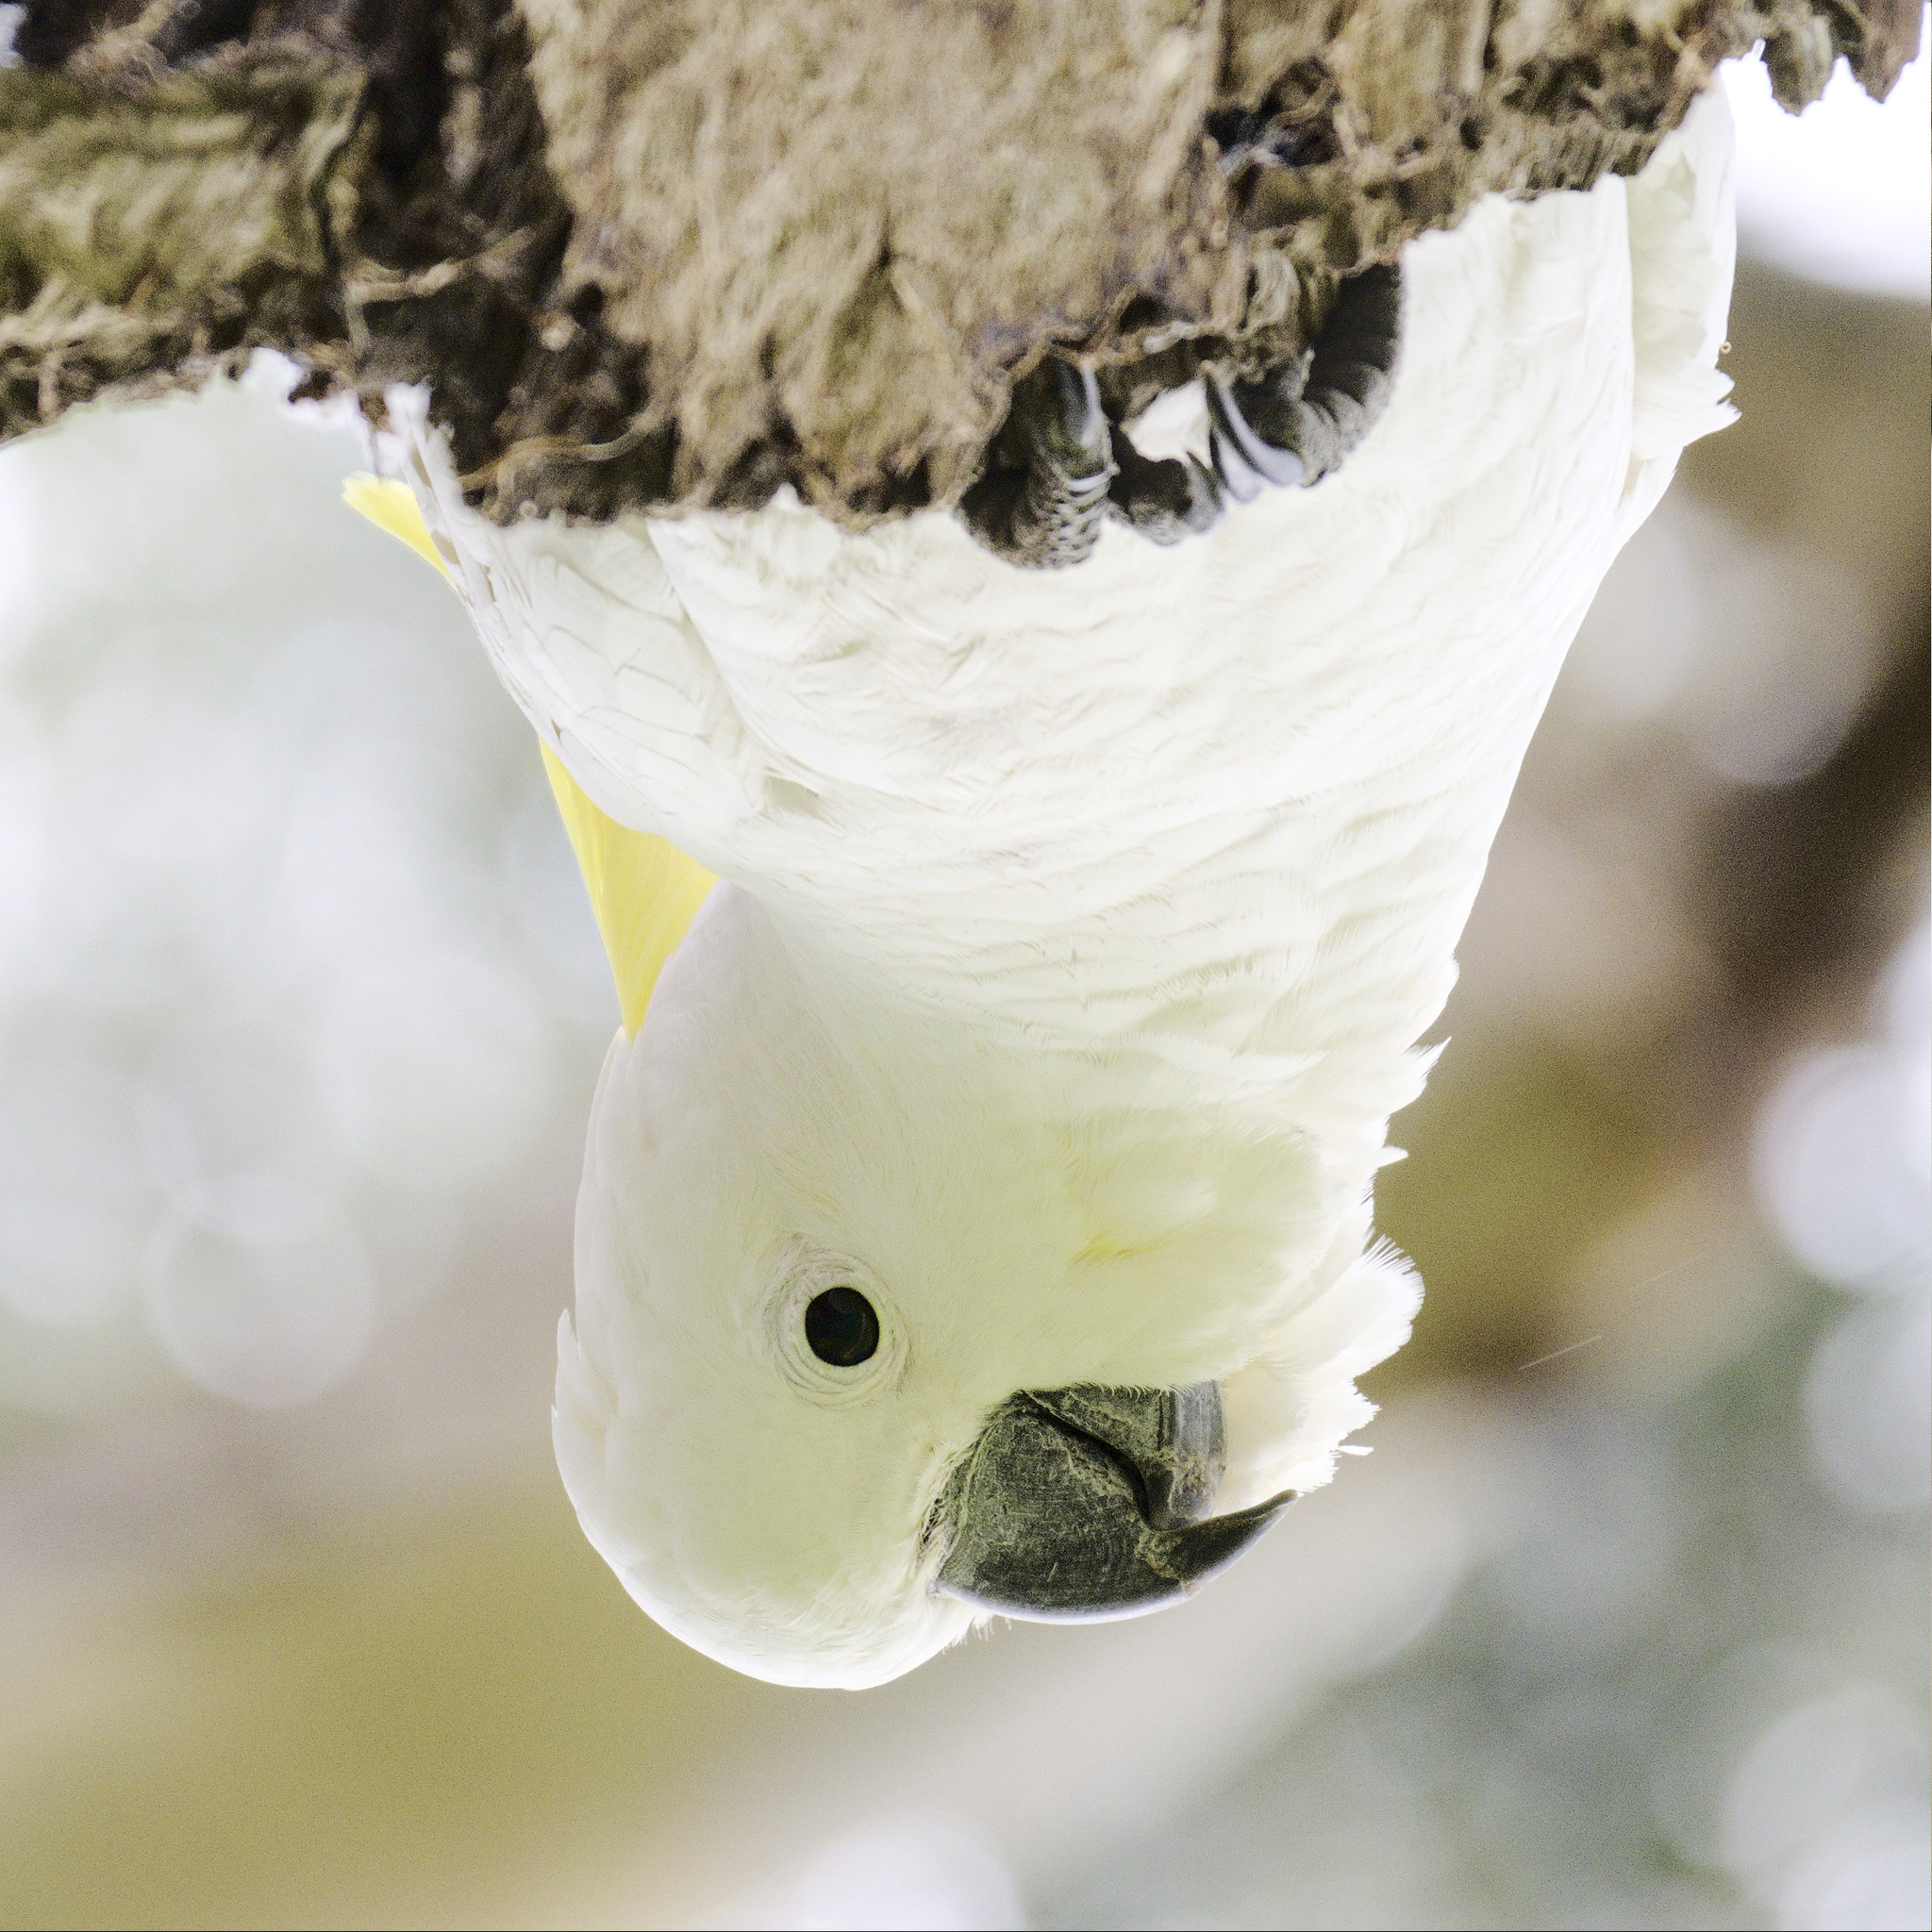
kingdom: Animalia
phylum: Chordata
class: Aves
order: Psittaciformes
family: Psittacidae
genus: Cacatua
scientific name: Cacatua galerita
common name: Sulphur-crested cockatoo
